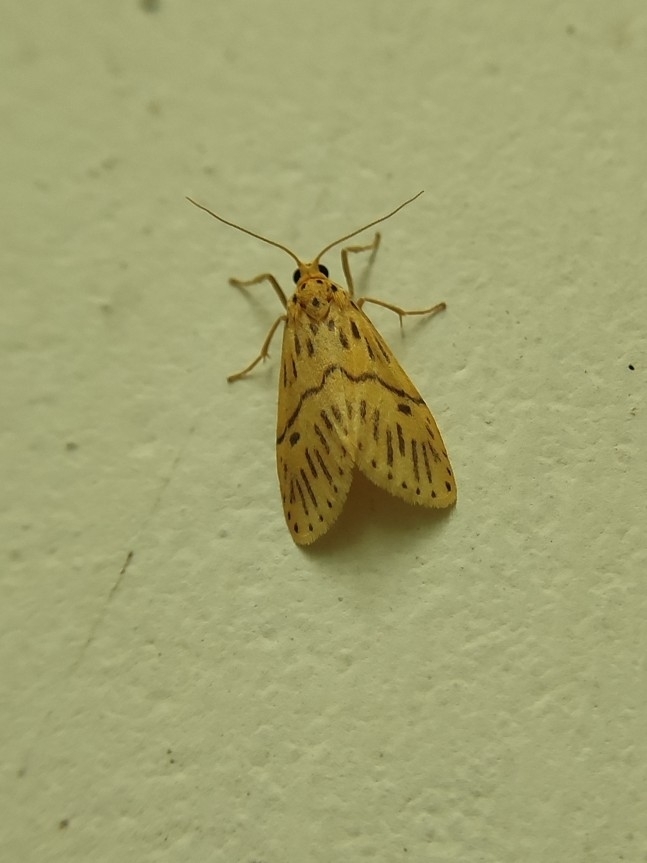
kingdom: Animalia
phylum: Arthropoda
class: Insecta
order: Lepidoptera
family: Erebidae
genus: Miltochrista
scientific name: Miltochrista strigipennis
